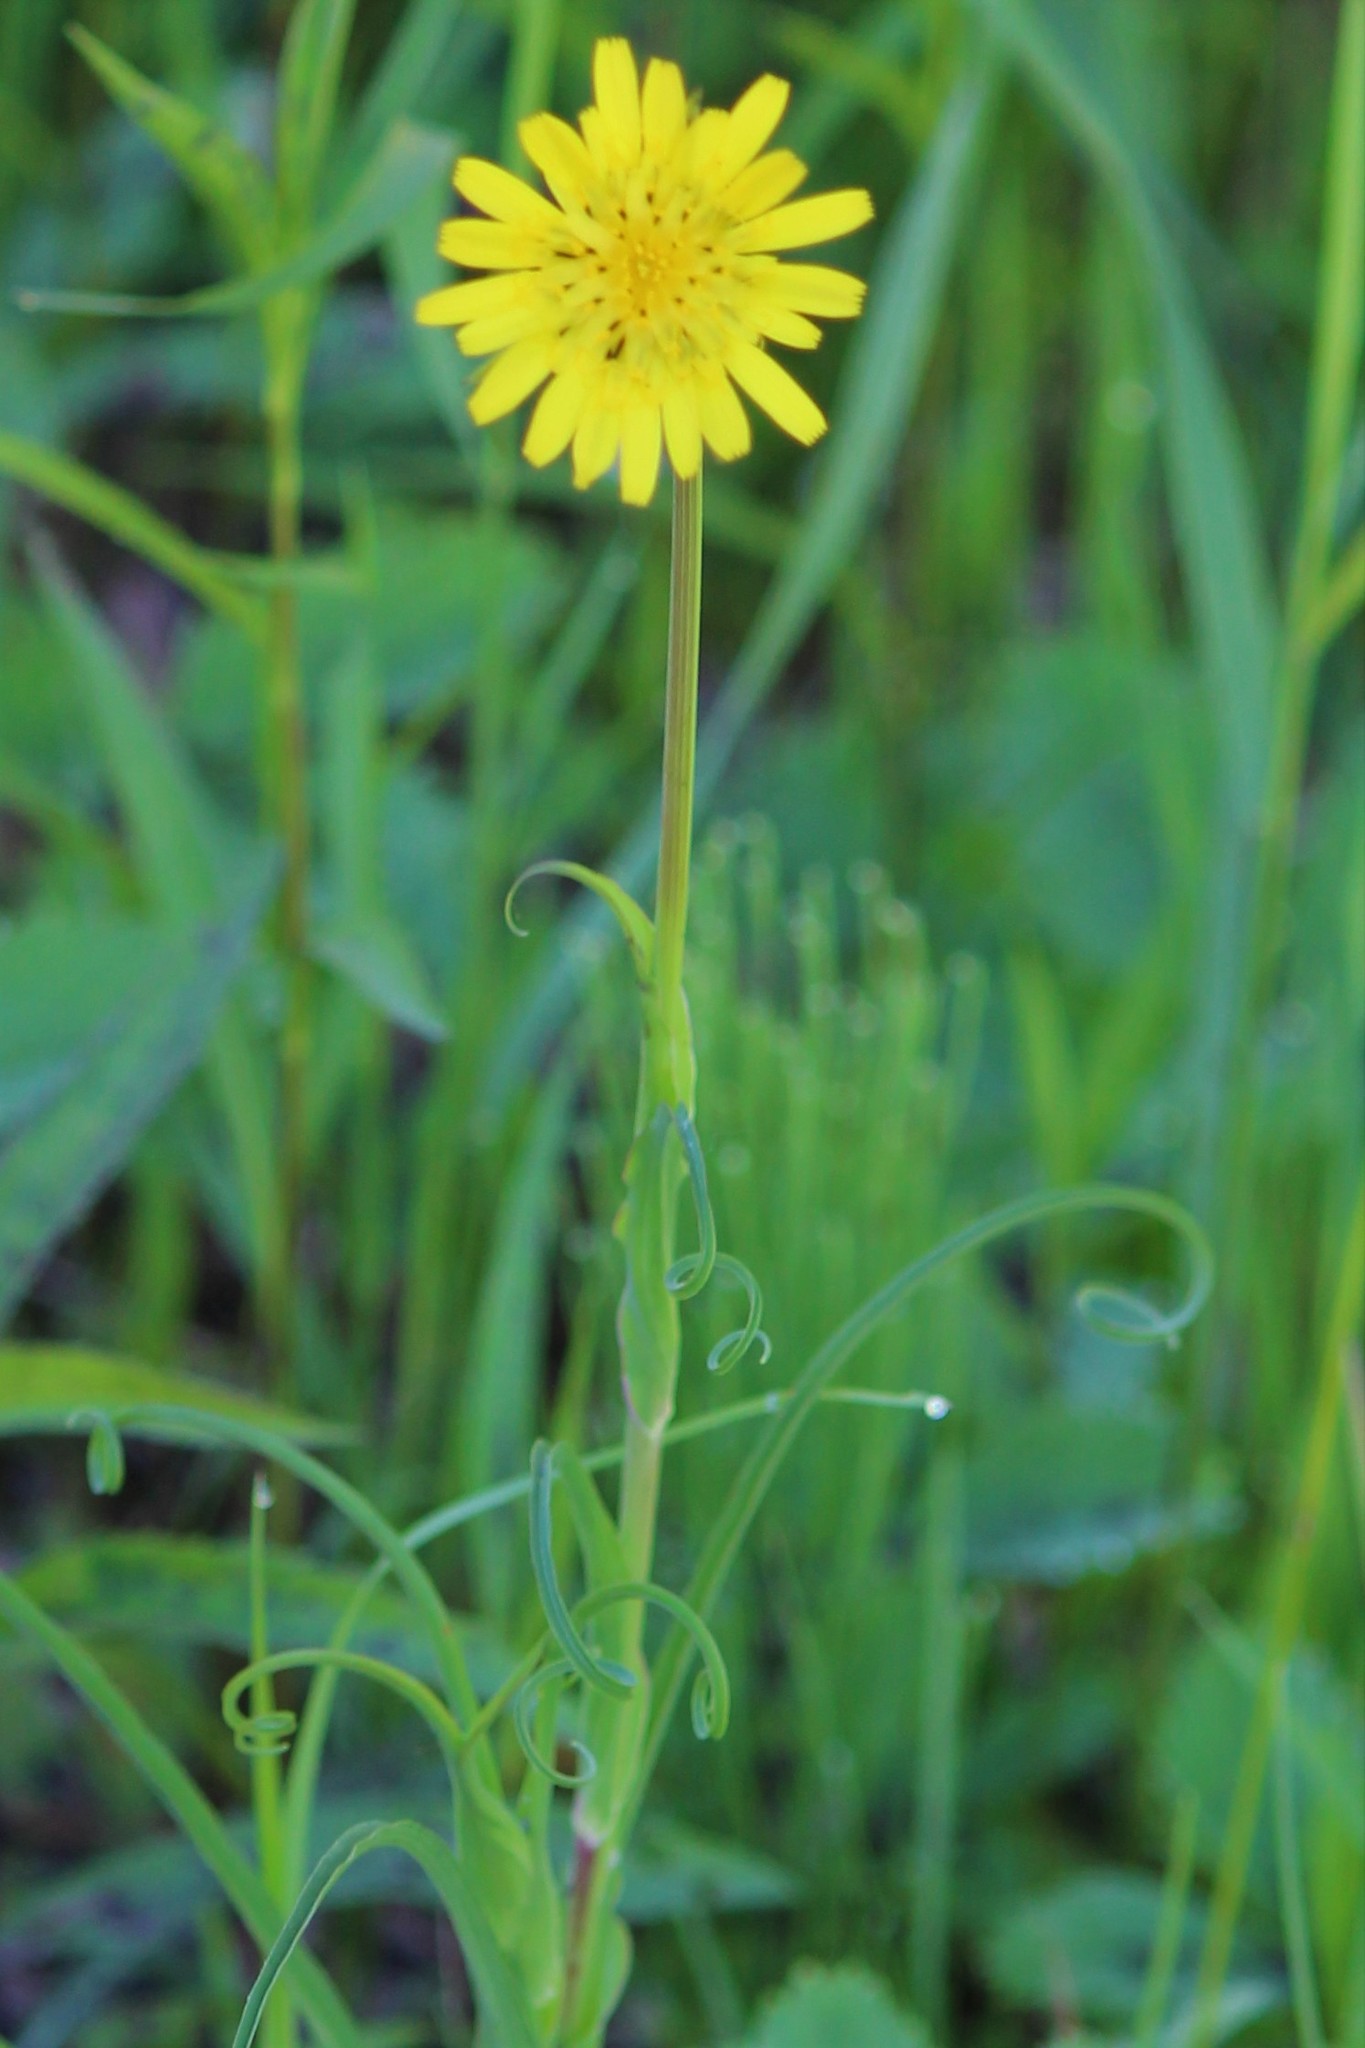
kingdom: Plantae
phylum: Tracheophyta
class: Magnoliopsida
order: Asterales
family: Asteraceae
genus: Tragopogon
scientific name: Tragopogon pratensis
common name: Goat's-beard
